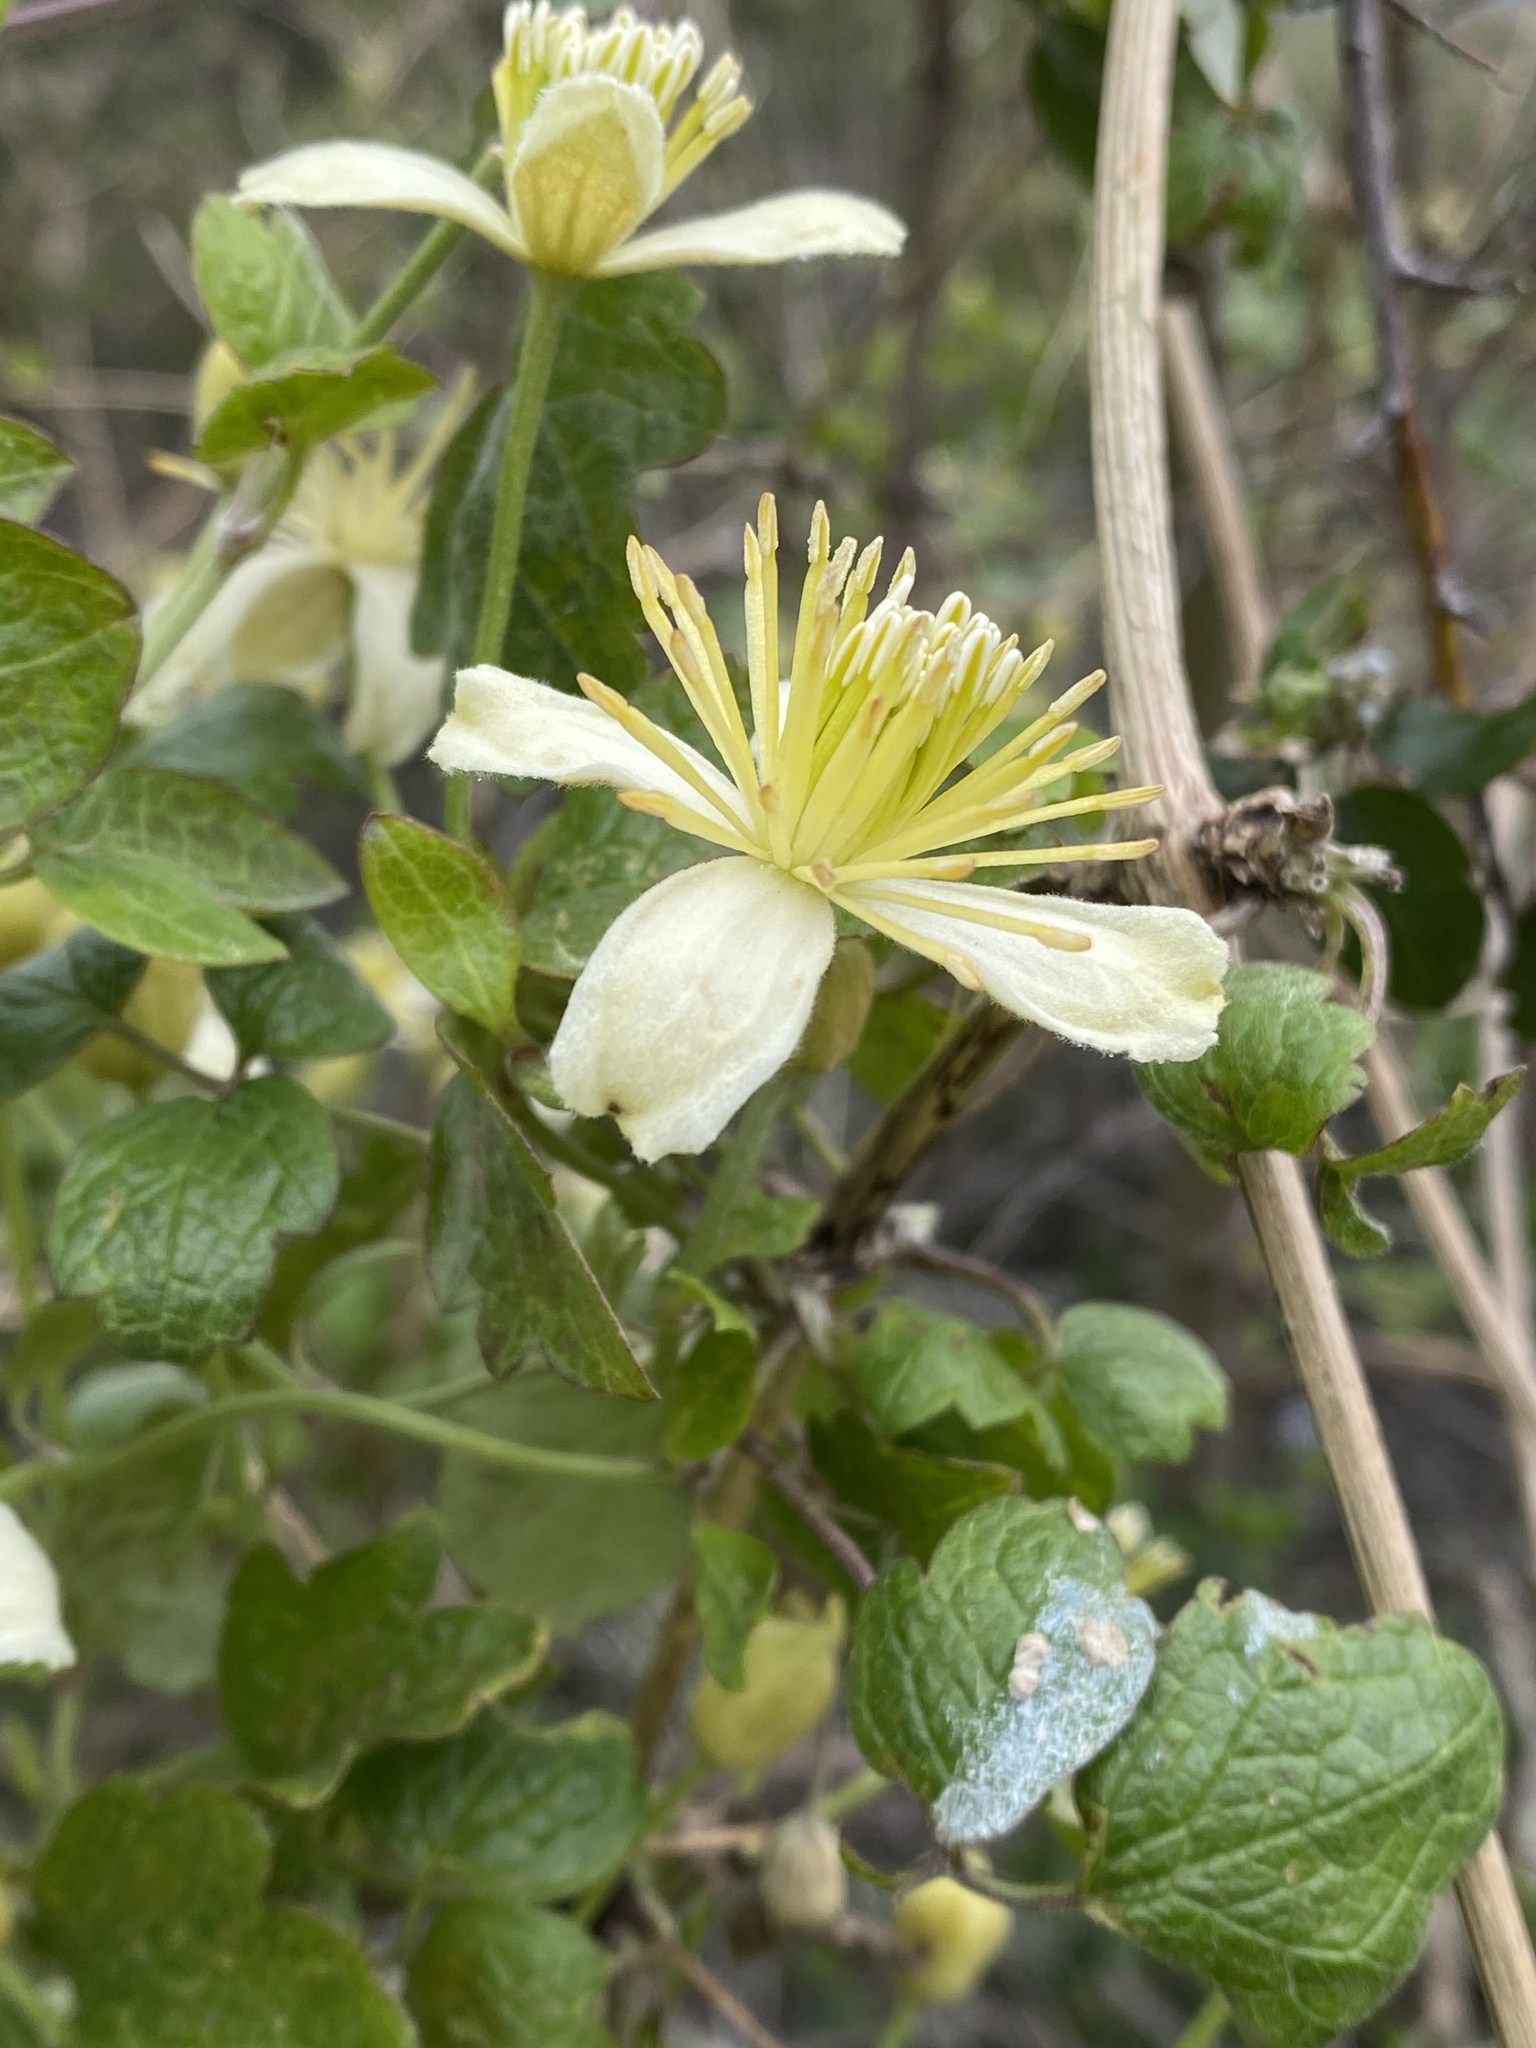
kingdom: Plantae
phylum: Tracheophyta
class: Magnoliopsida
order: Ranunculales
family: Ranunculaceae
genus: Clematis
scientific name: Clematis lasiantha
